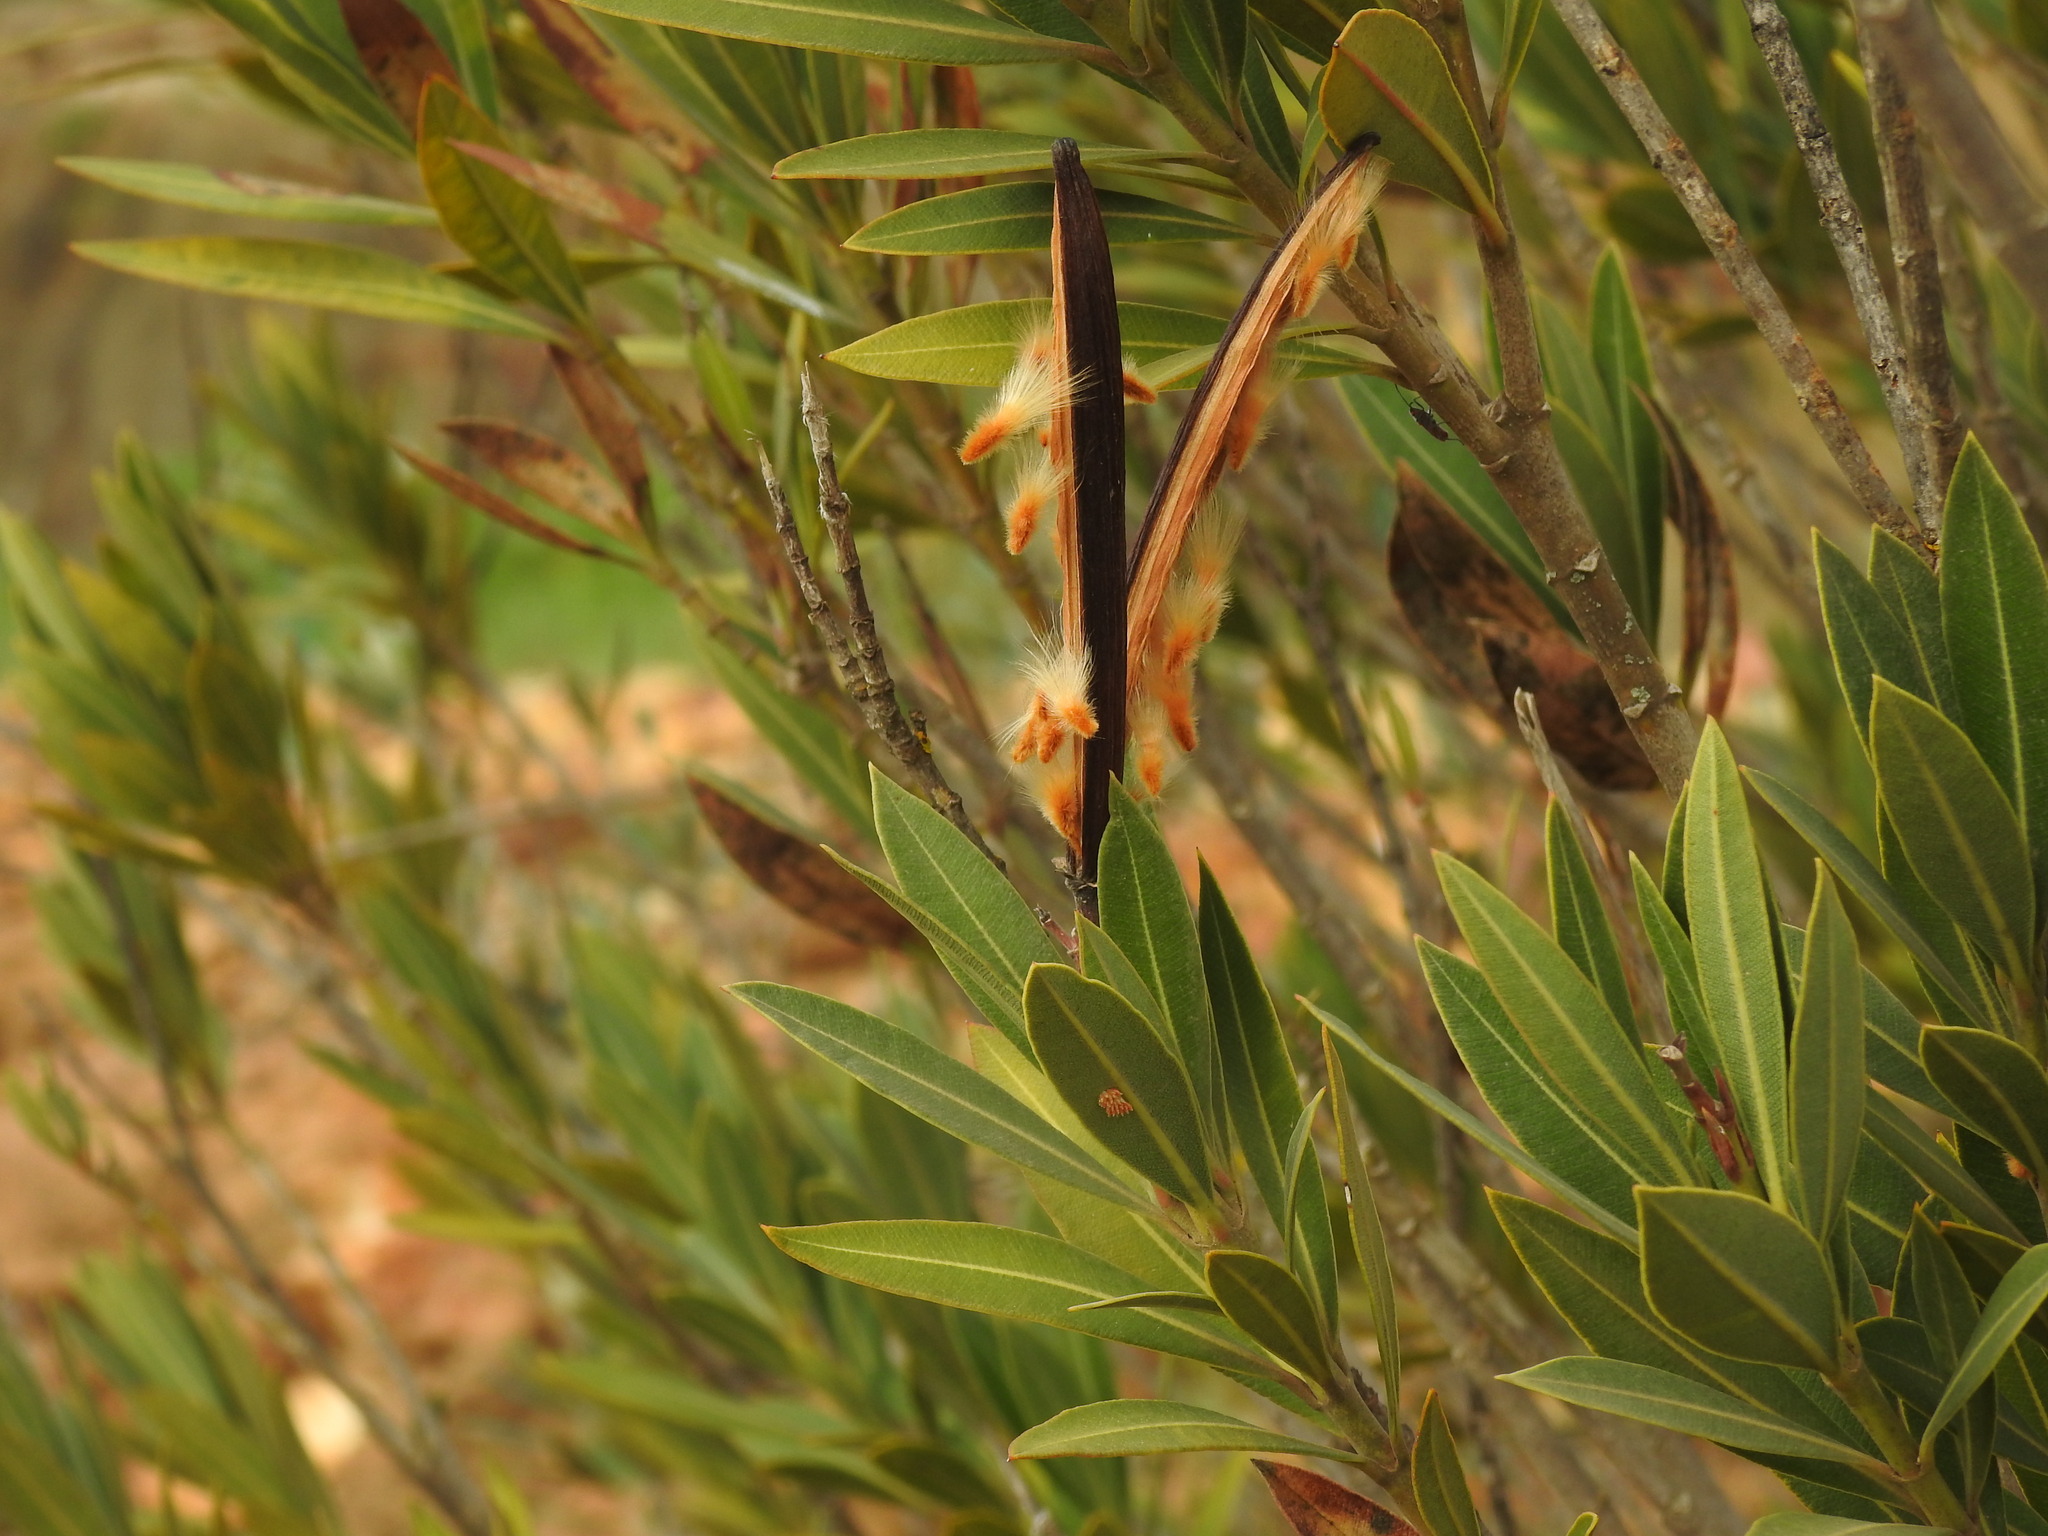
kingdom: Plantae
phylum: Tracheophyta
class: Magnoliopsida
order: Gentianales
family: Apocynaceae
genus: Nerium
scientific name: Nerium oleander
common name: Oleander
